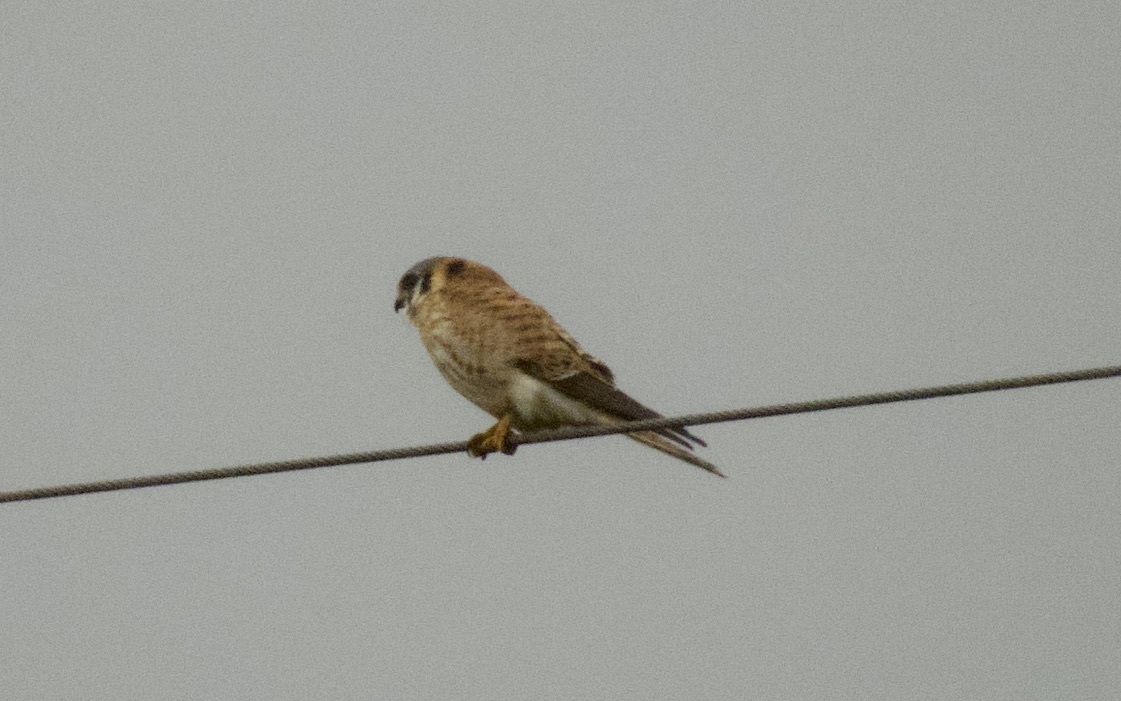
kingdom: Animalia
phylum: Chordata
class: Aves
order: Falconiformes
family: Falconidae
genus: Falco
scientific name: Falco sparverius
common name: American kestrel
